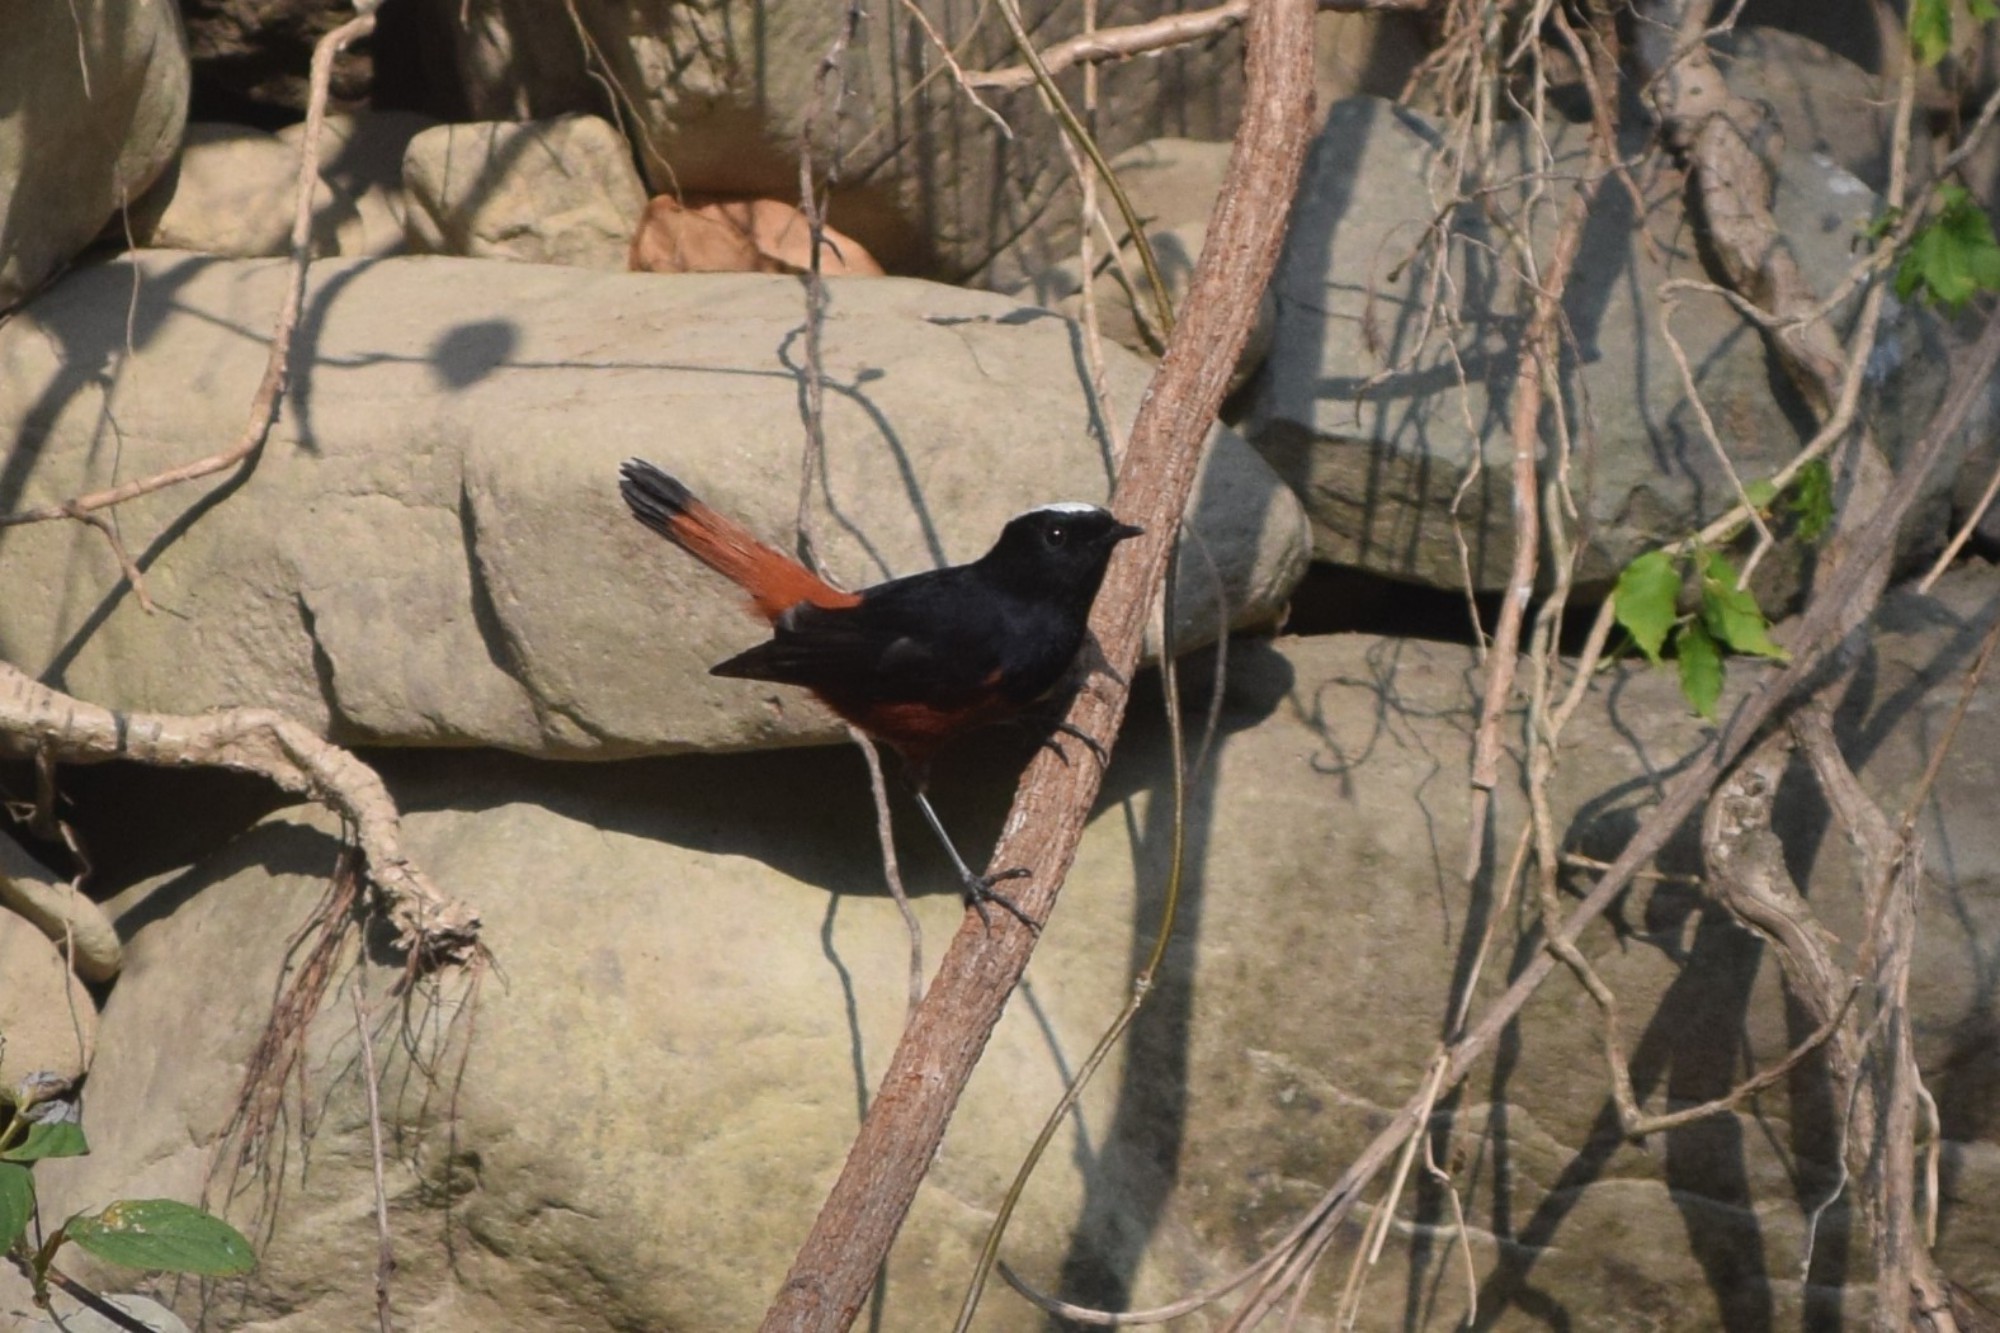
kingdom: Animalia
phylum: Chordata
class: Aves
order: Passeriformes
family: Muscicapidae
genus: Chaimarrornis
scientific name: Chaimarrornis leucocephalus
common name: White-capped redstart
